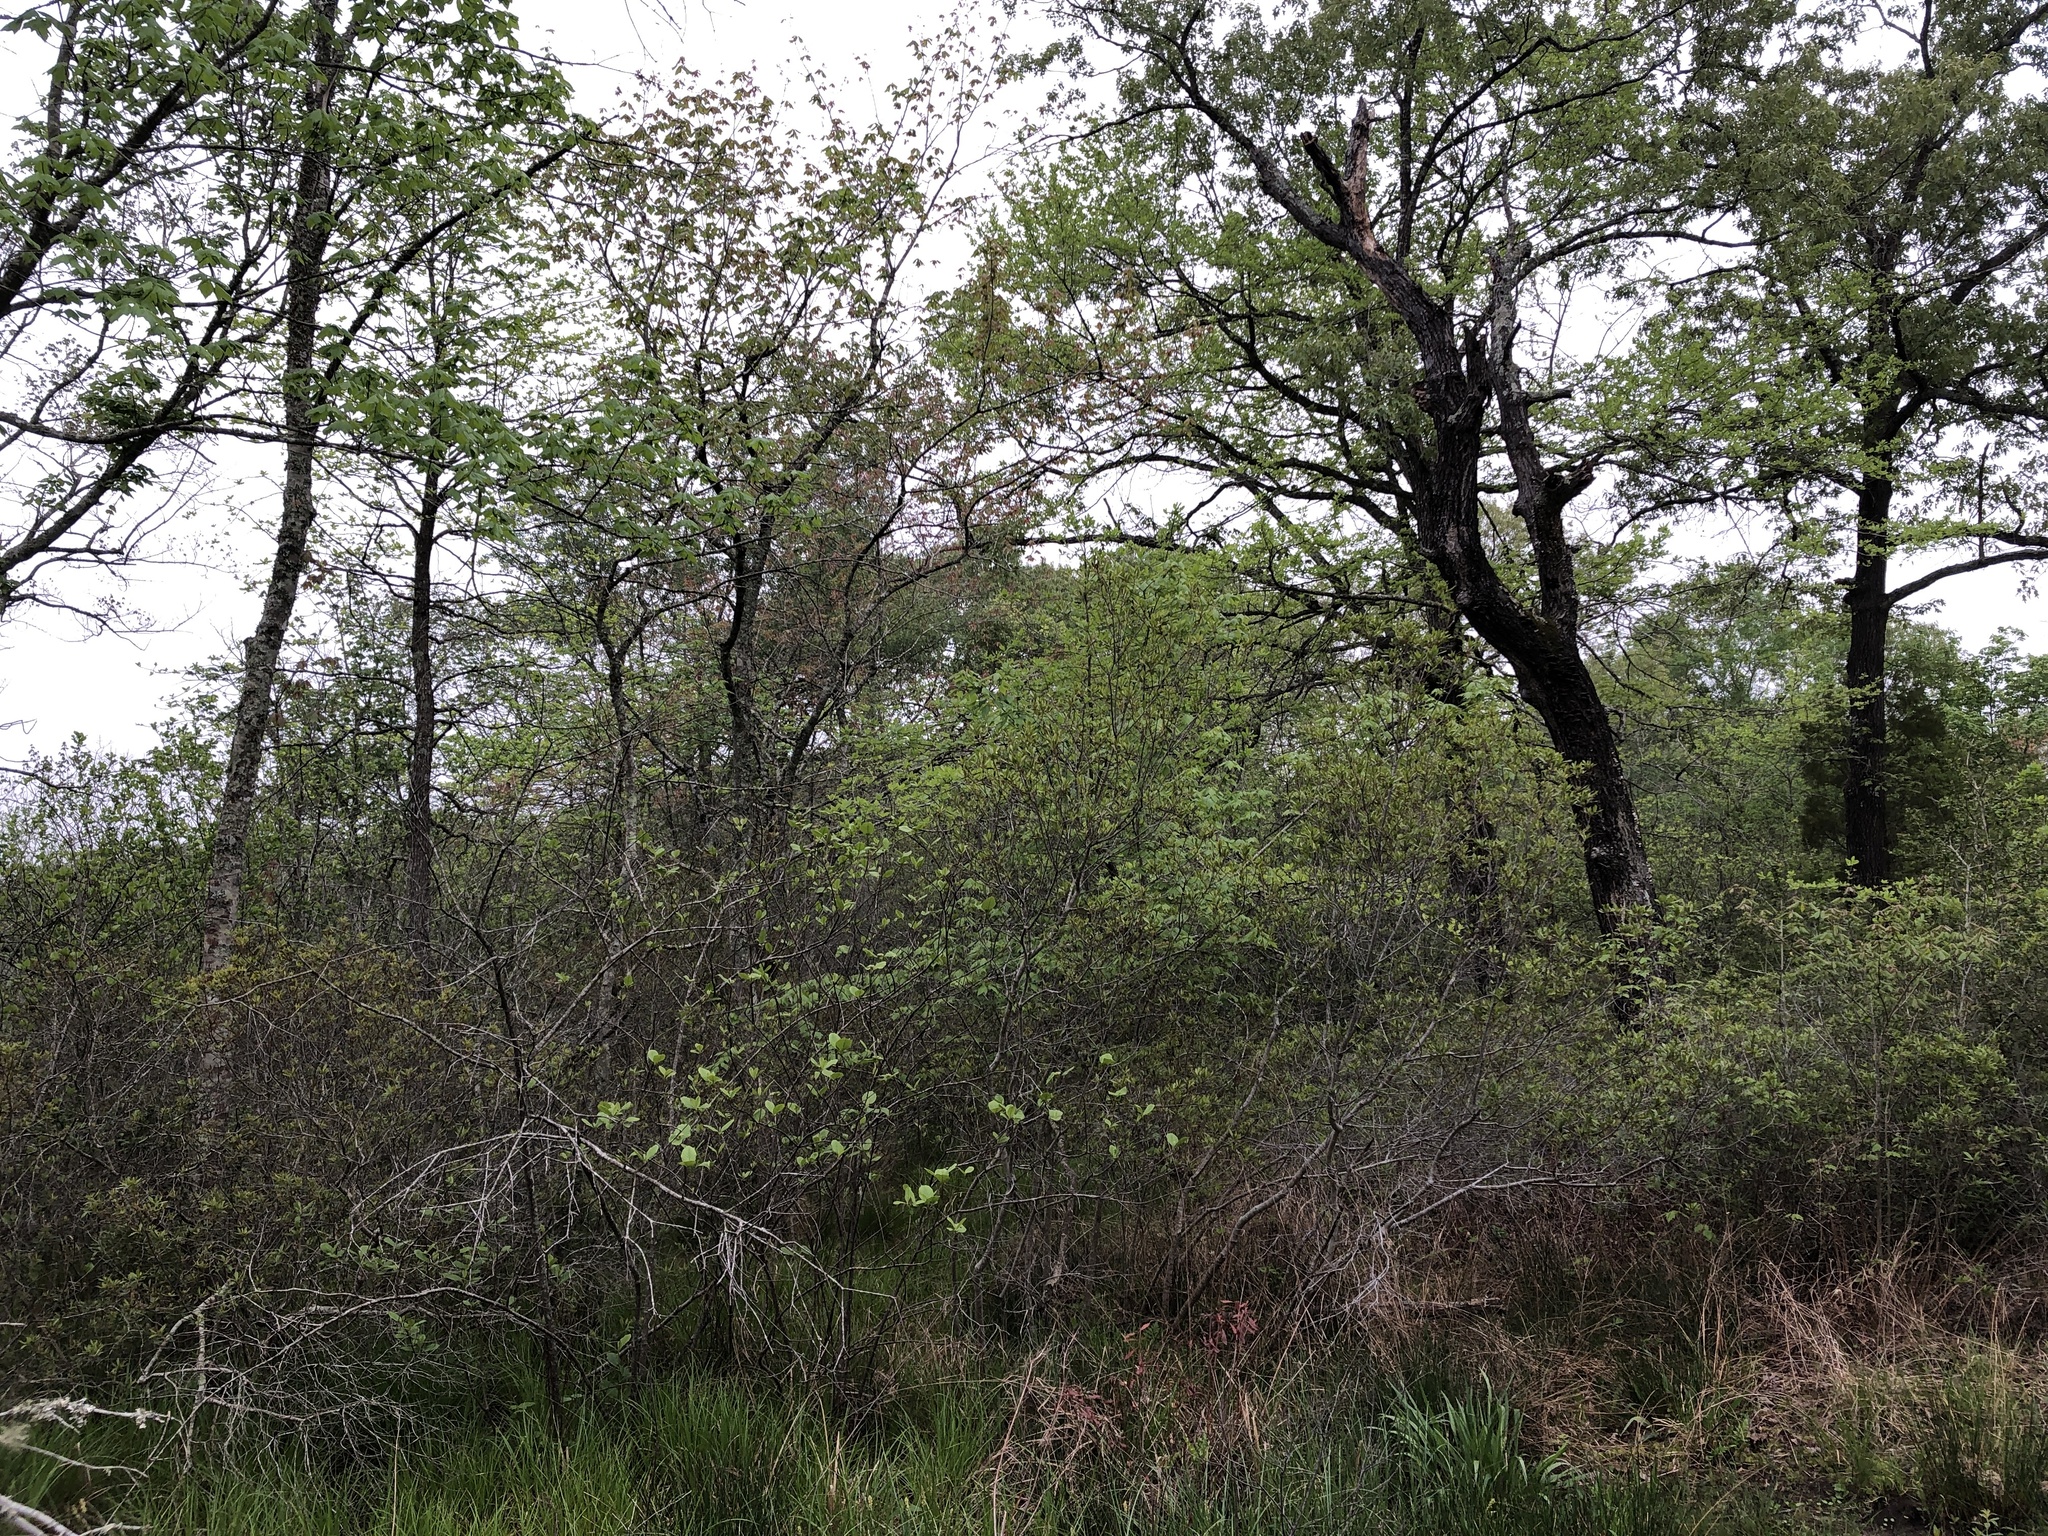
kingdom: Animalia
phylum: Chordata
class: Aves
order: Passeriformes
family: Vireonidae
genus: Vireo
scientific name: Vireo griseus
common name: White-eyed vireo
